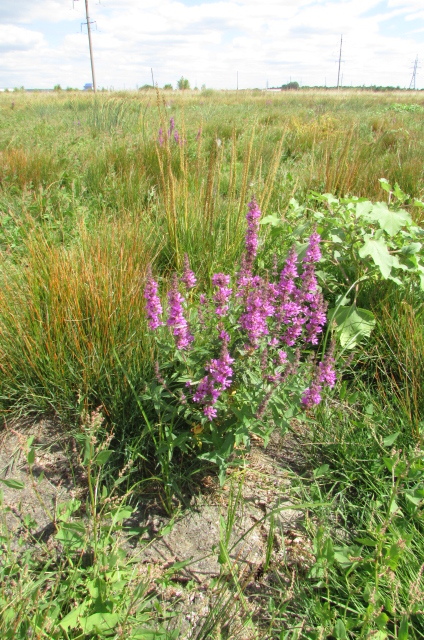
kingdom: Plantae
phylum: Tracheophyta
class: Magnoliopsida
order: Myrtales
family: Lythraceae
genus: Lythrum
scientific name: Lythrum salicaria
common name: Purple loosestrife
